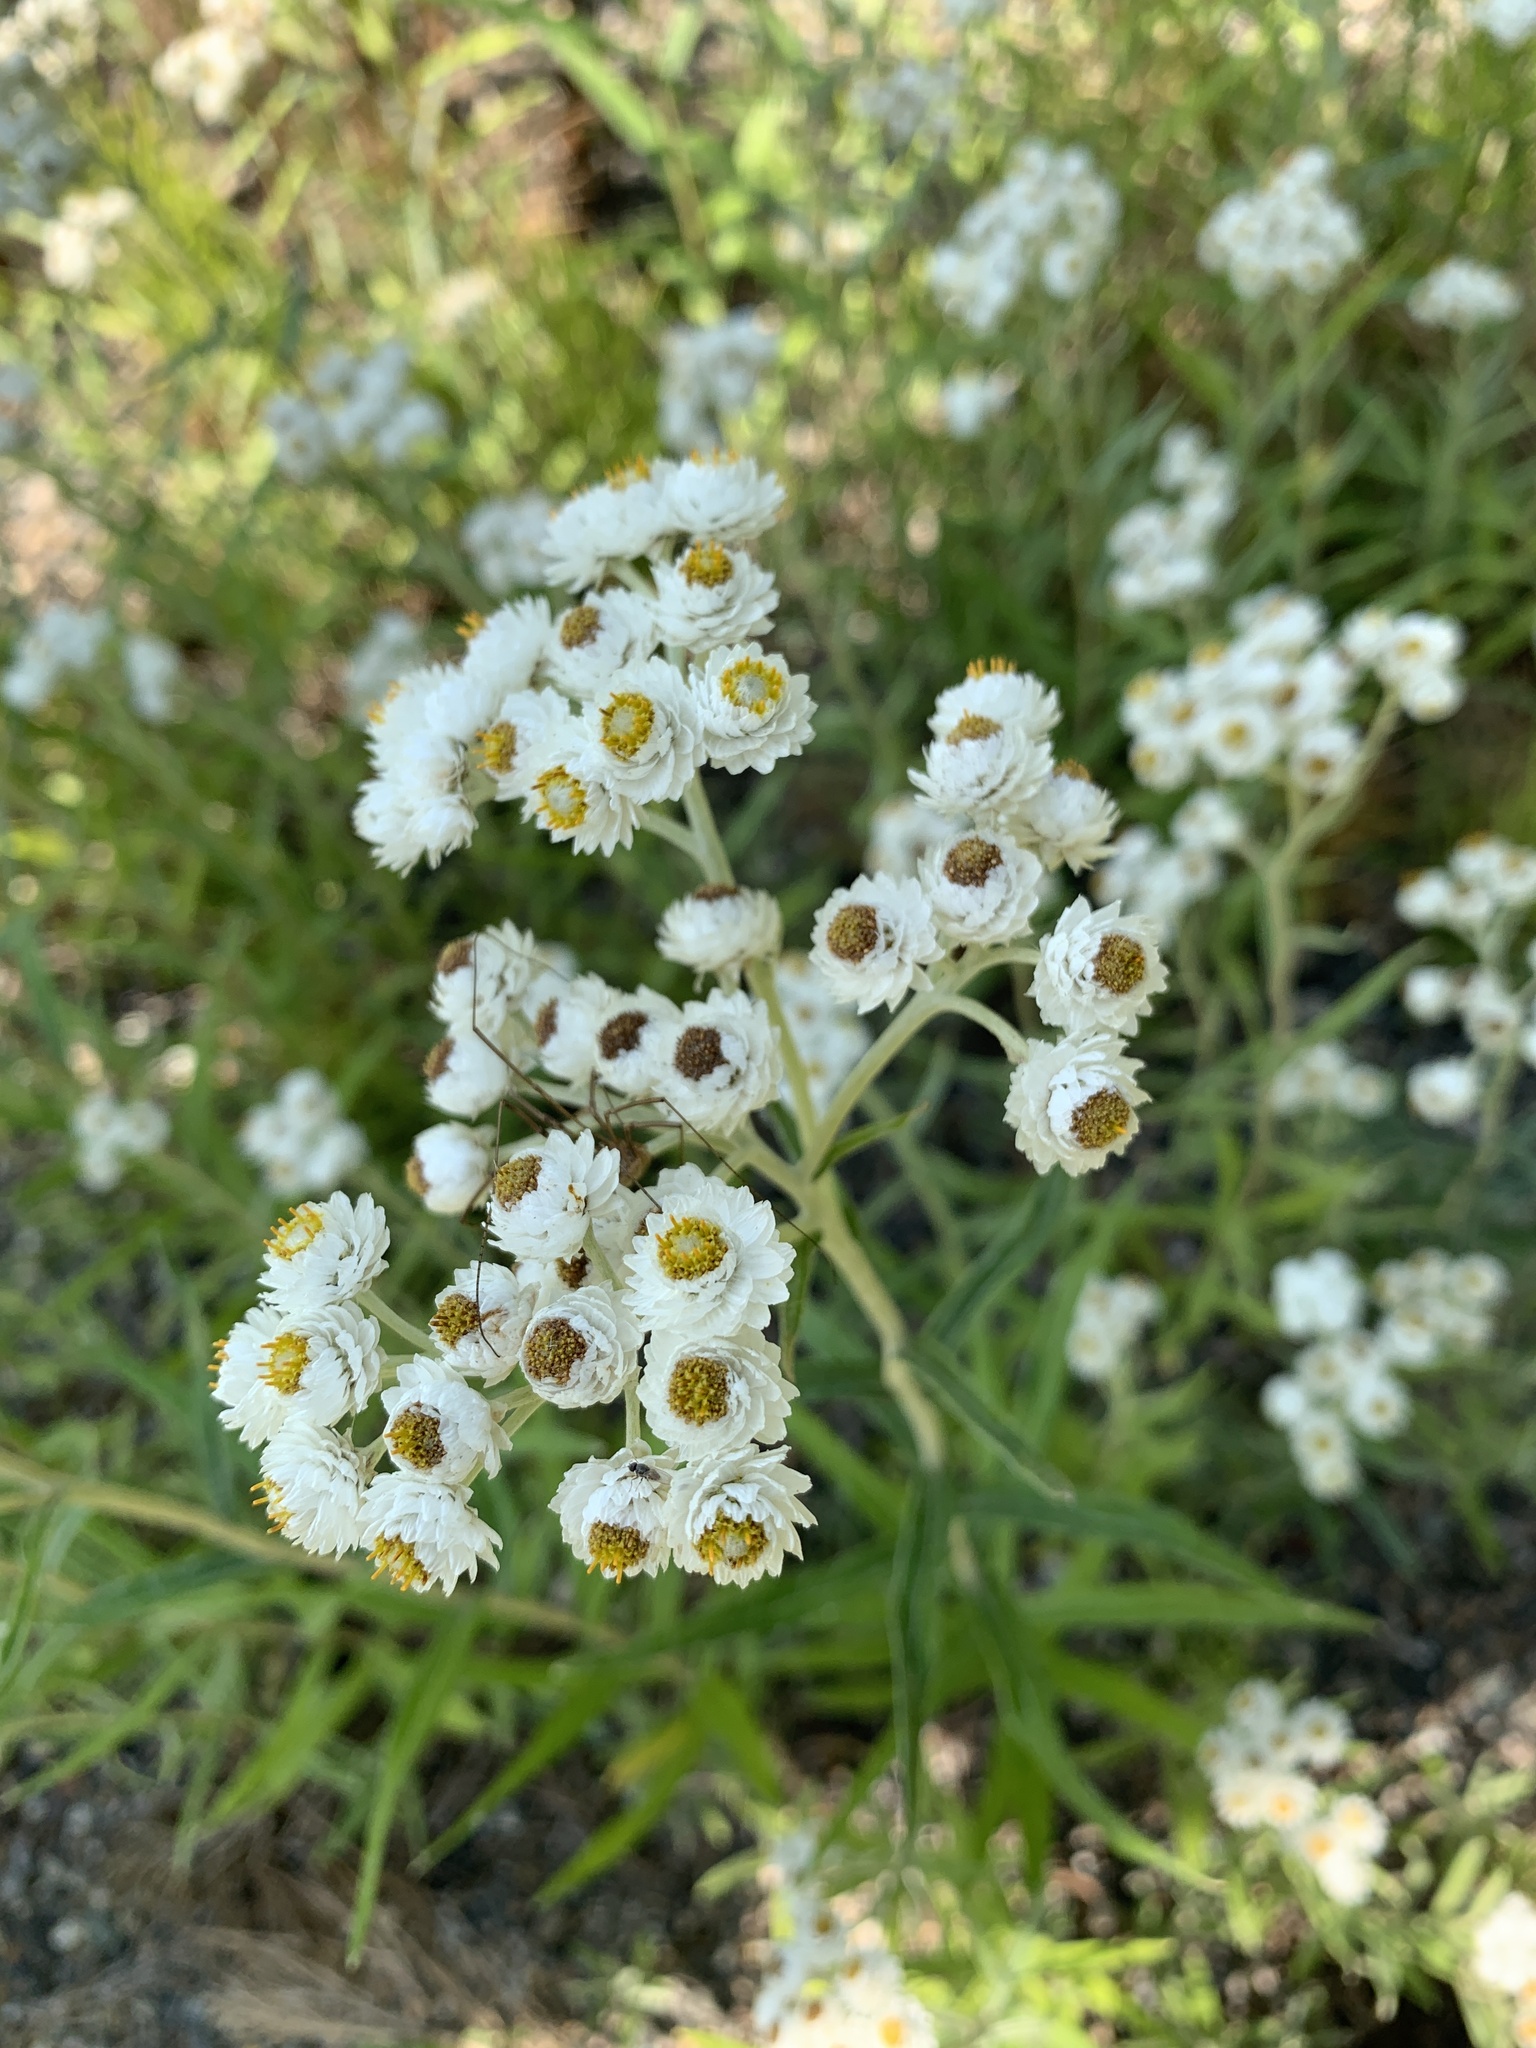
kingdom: Plantae
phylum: Tracheophyta
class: Magnoliopsida
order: Asterales
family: Asteraceae
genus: Anaphalis
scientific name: Anaphalis margaritacea
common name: Pearly everlasting
